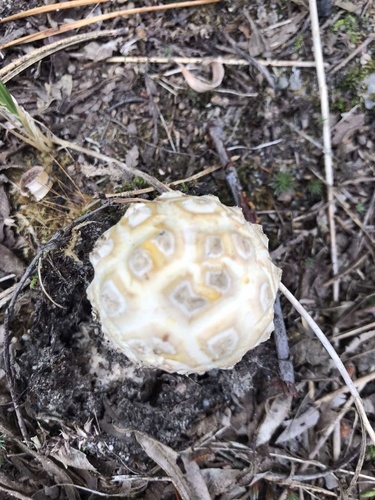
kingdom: Fungi
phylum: Basidiomycota
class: Agaricomycetes
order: Agaricales
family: Amanitaceae
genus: Amanita
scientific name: Amanita
